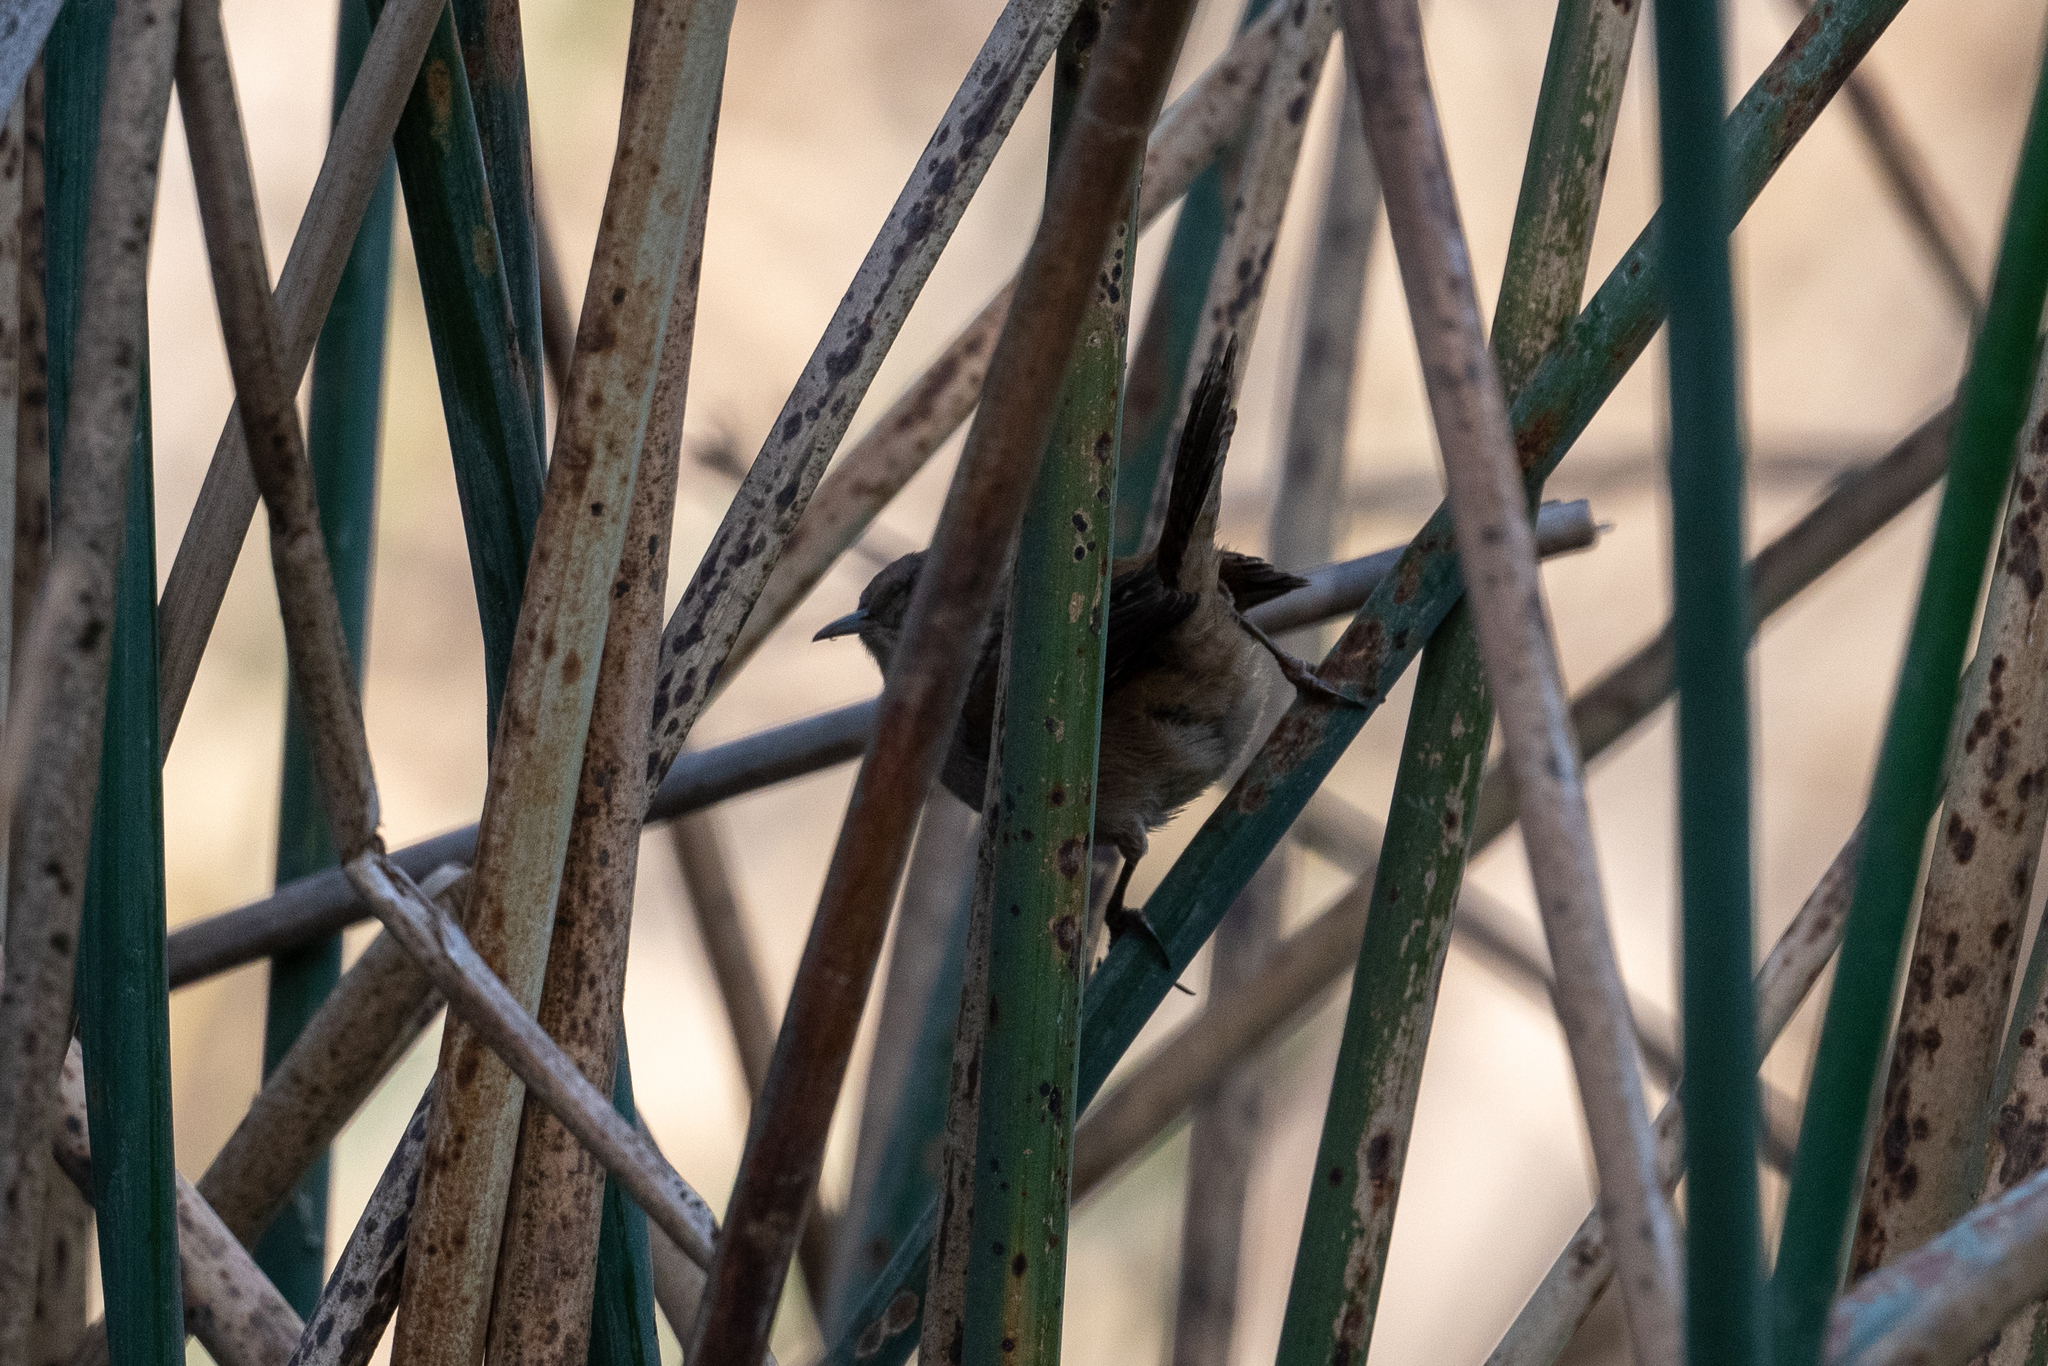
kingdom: Animalia
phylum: Chordata
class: Aves
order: Passeriformes
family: Troglodytidae
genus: Cistothorus
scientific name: Cistothorus palustris
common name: Marsh wren
